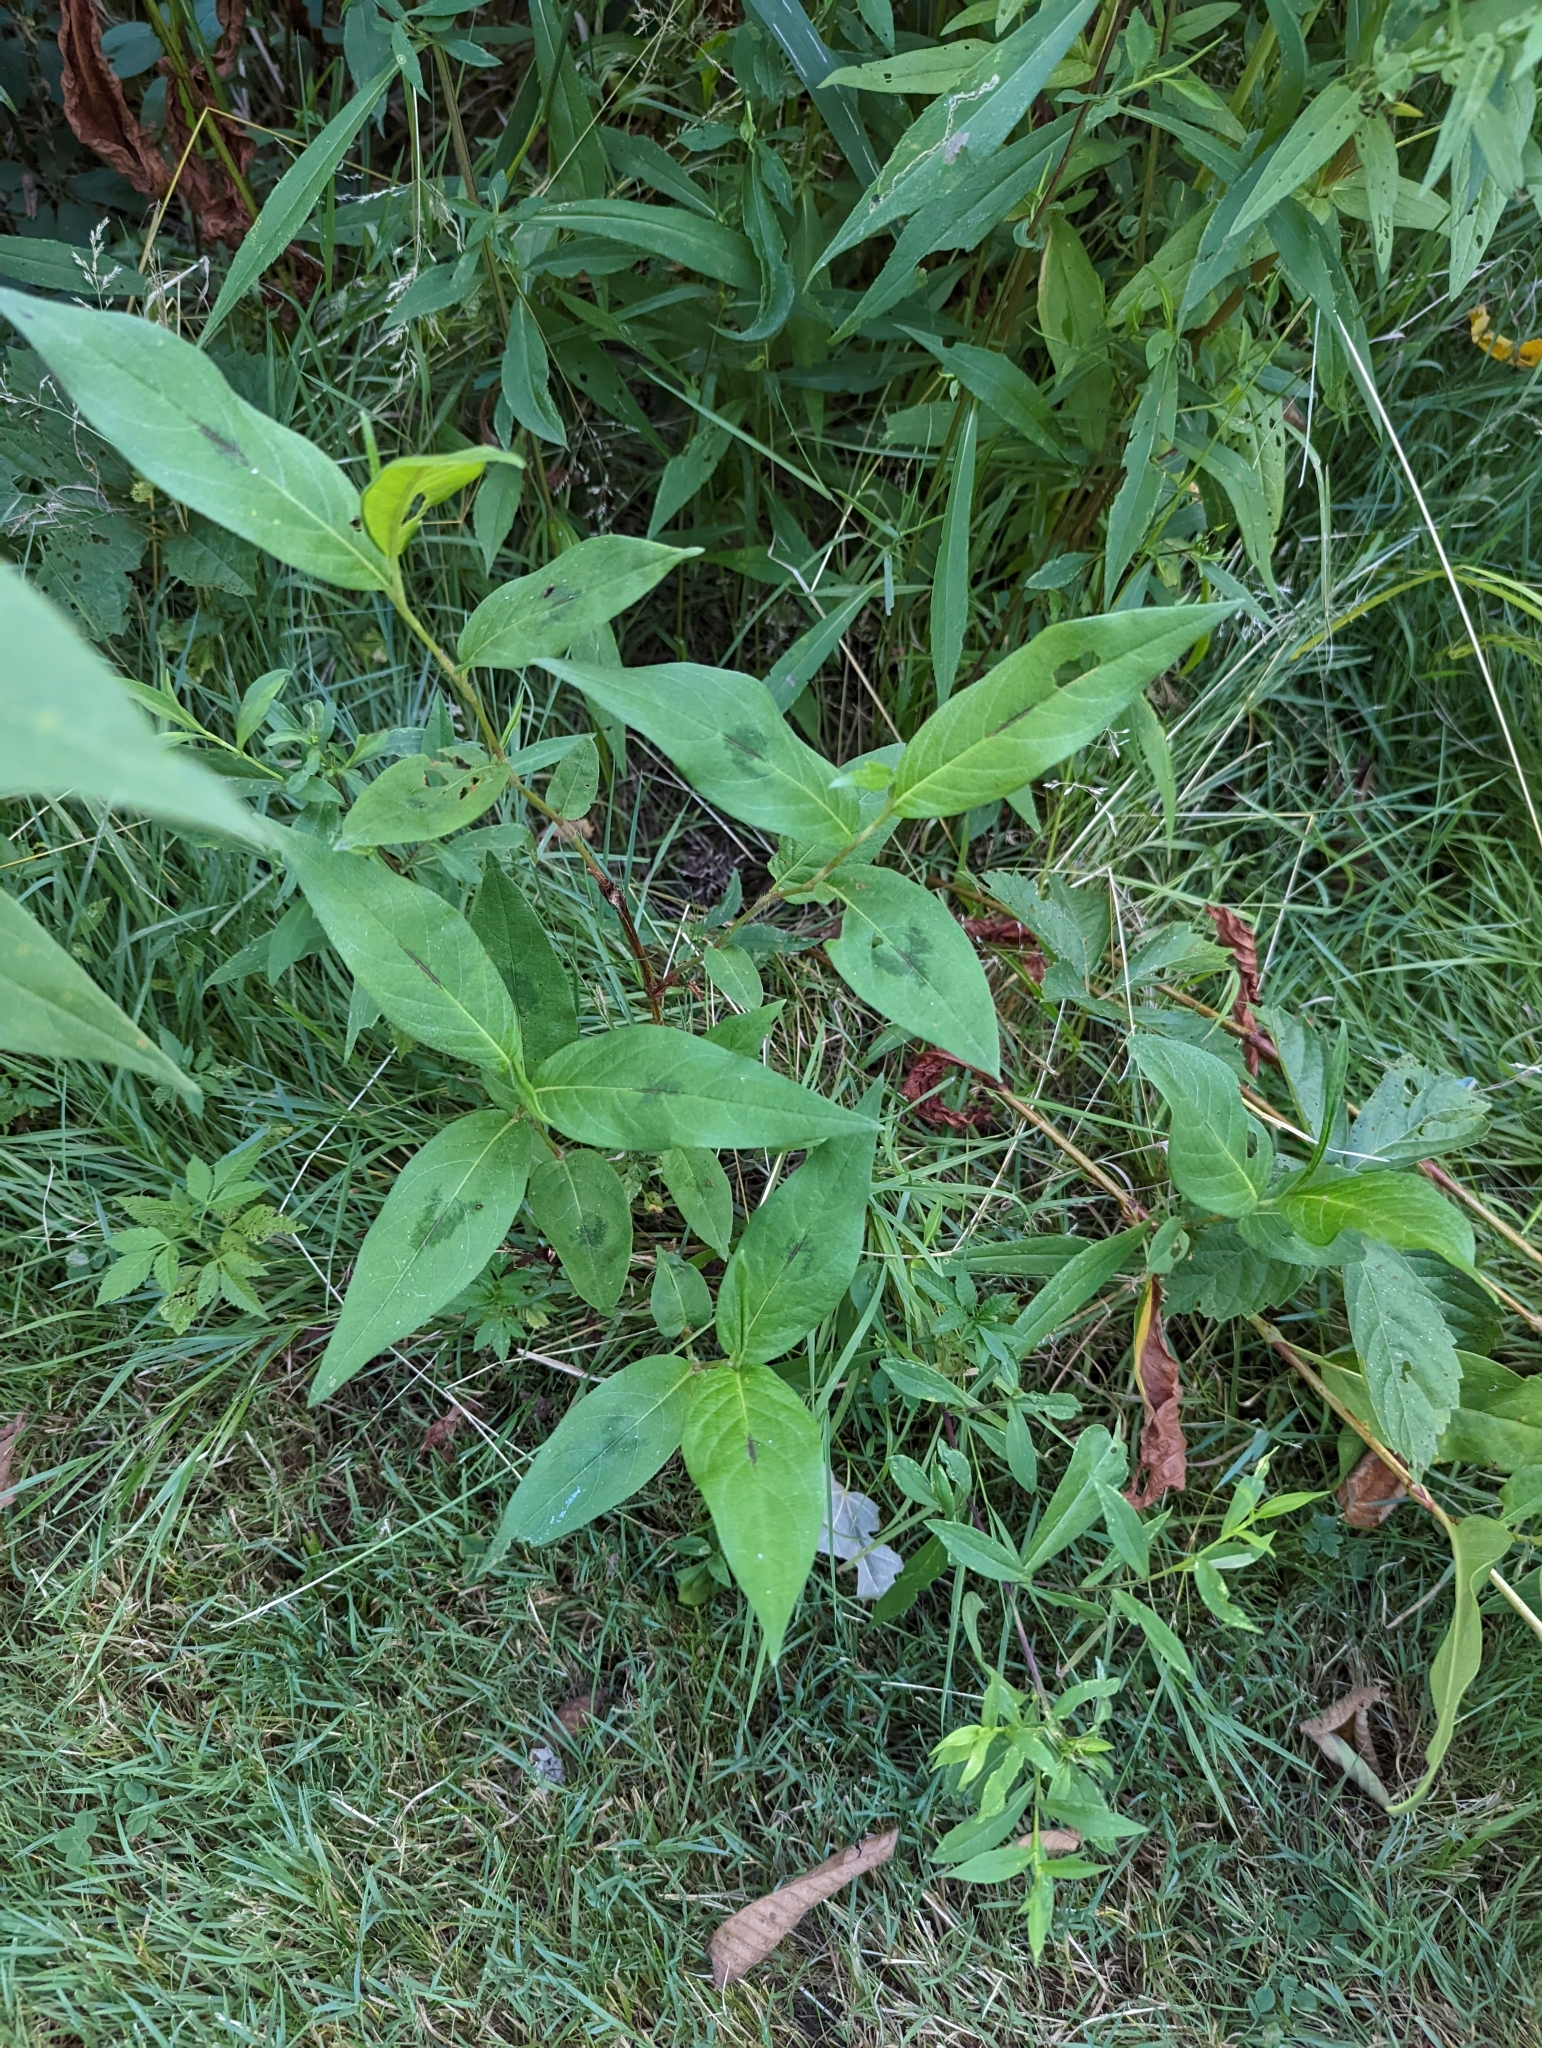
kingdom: Plantae
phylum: Tracheophyta
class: Magnoliopsida
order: Caryophyllales
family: Polygonaceae
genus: Persicaria
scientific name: Persicaria virginiana
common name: Jumpseed
